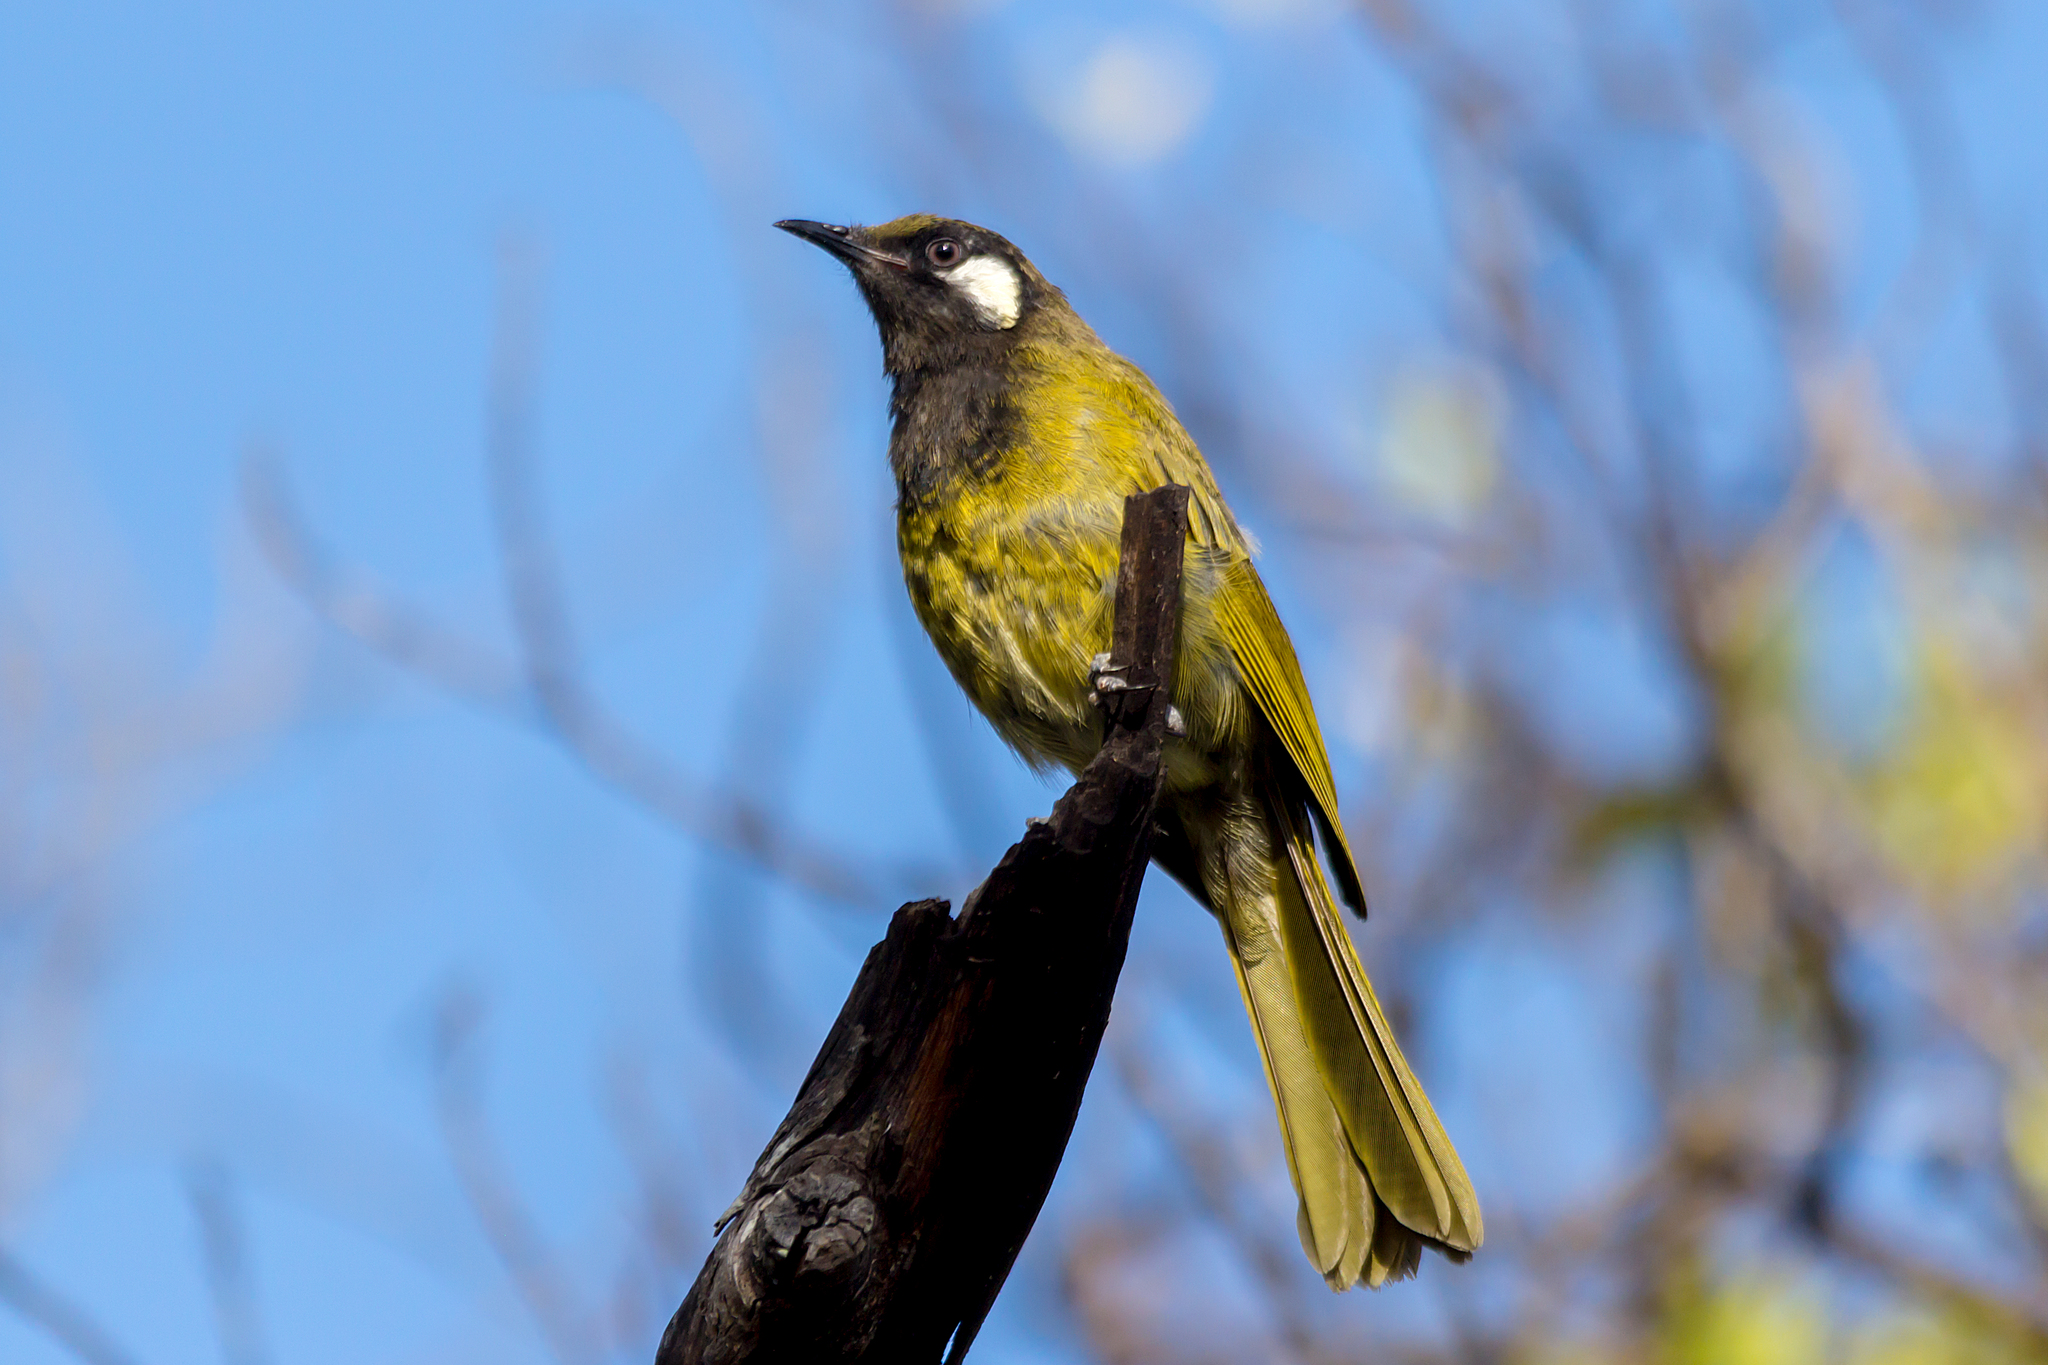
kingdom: Animalia
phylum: Chordata
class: Aves
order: Passeriformes
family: Meliphagidae
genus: Nesoptilotis
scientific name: Nesoptilotis leucotis
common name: White-eared honeyeater
